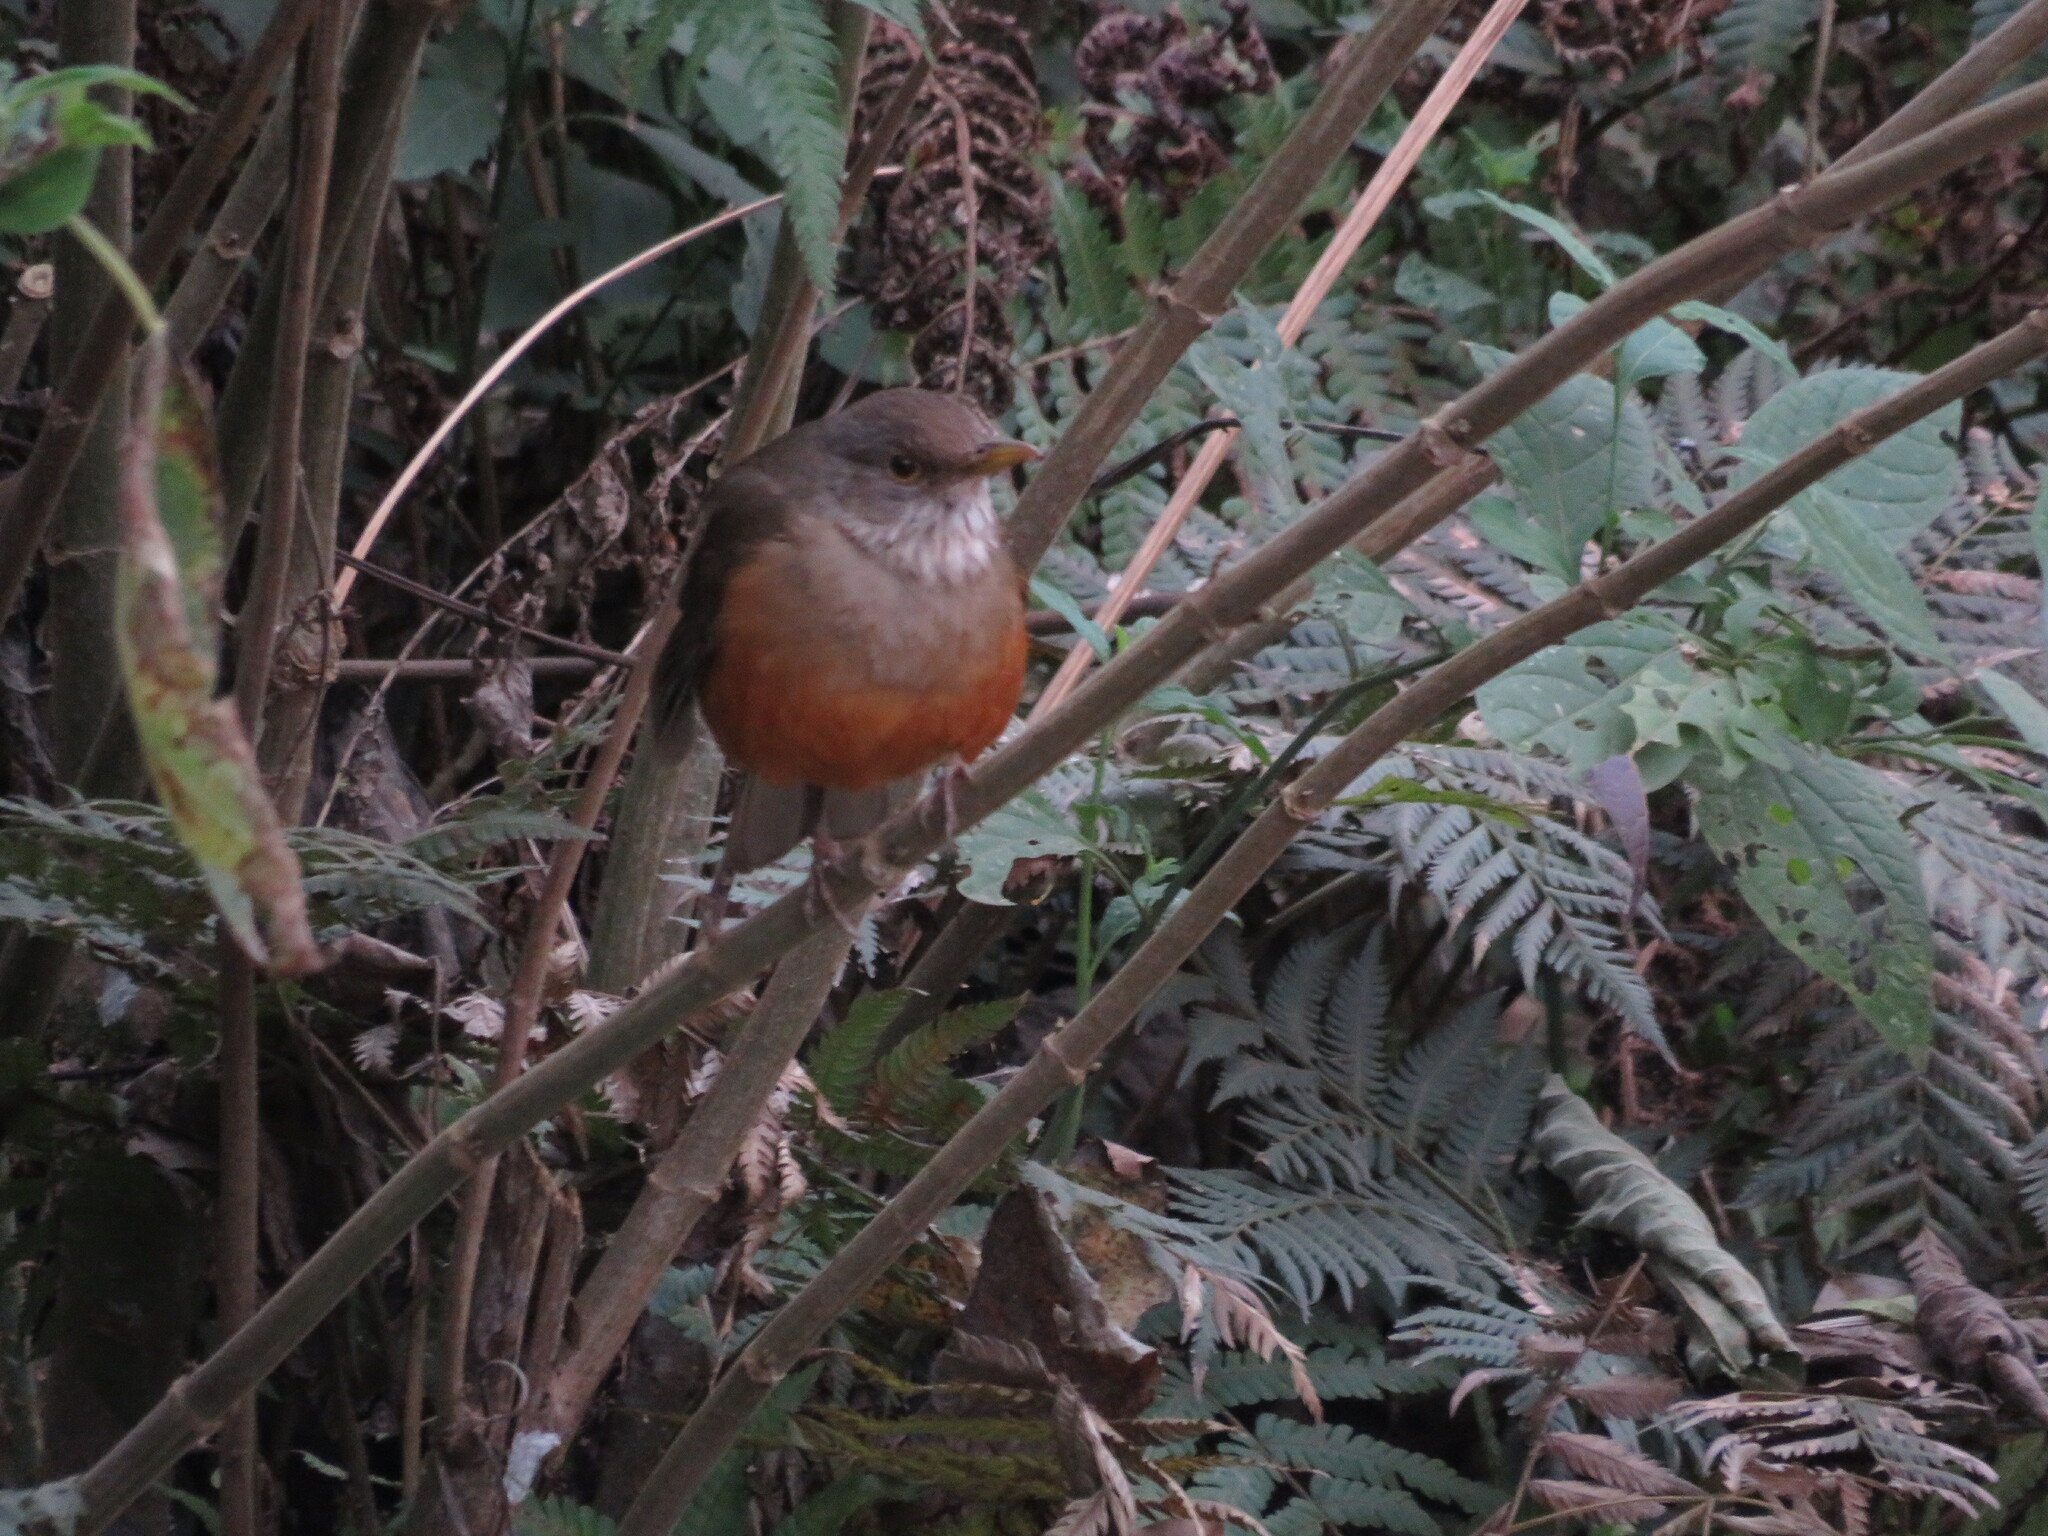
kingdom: Animalia
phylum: Chordata
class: Aves
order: Passeriformes
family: Turdidae
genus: Turdus
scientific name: Turdus rufiventris
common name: Rufous-bellied thrush
